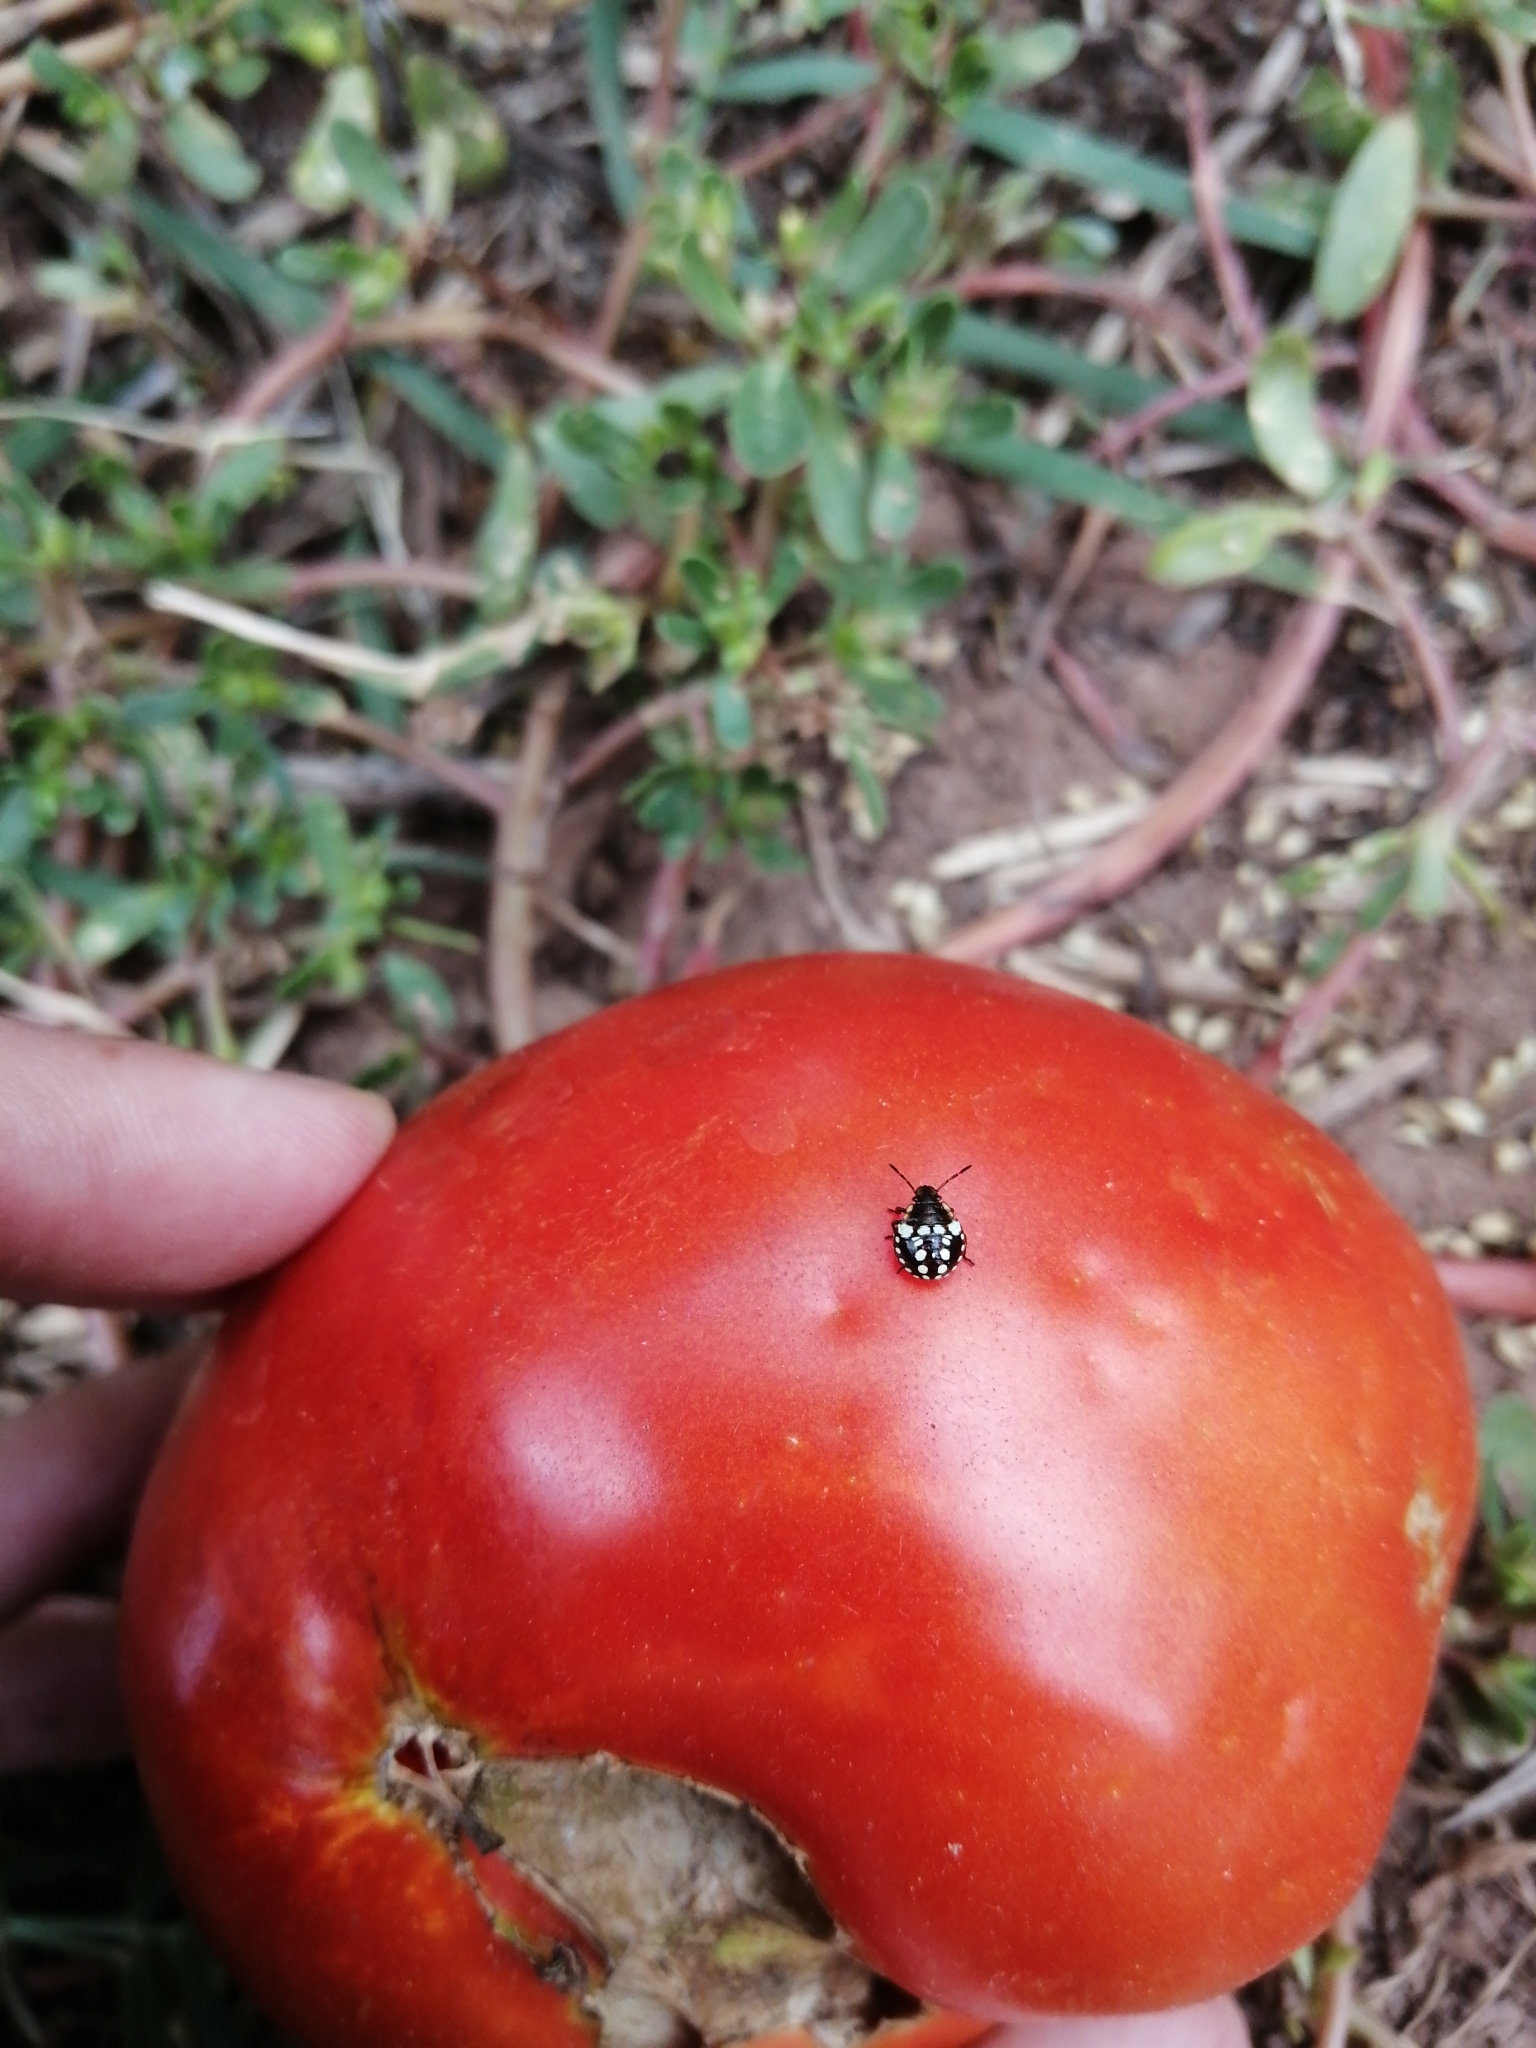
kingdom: Animalia
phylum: Arthropoda
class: Insecta
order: Hemiptera
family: Pentatomidae
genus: Nezara
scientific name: Nezara viridula
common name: Southern green stink bug
